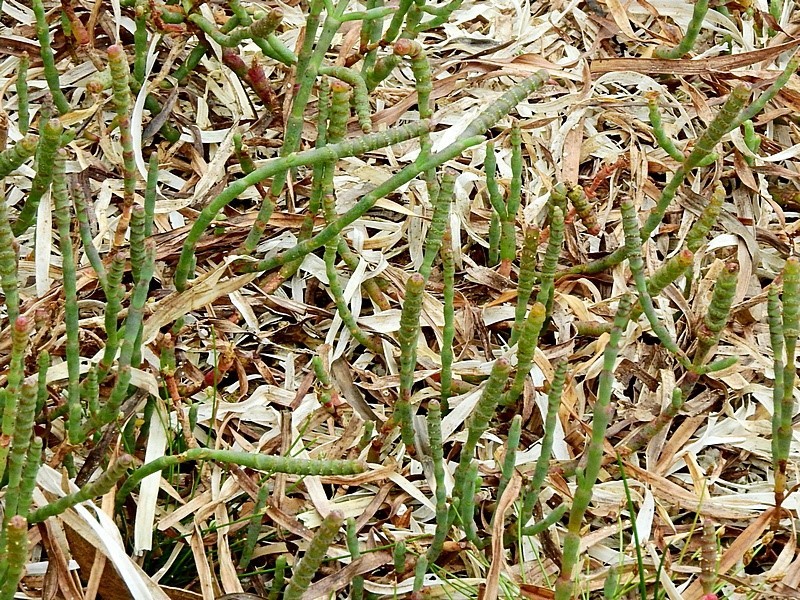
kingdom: Plantae
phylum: Tracheophyta
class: Magnoliopsida
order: Caryophyllales
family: Amaranthaceae
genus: Salicornia
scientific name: Salicornia quinqueflora
